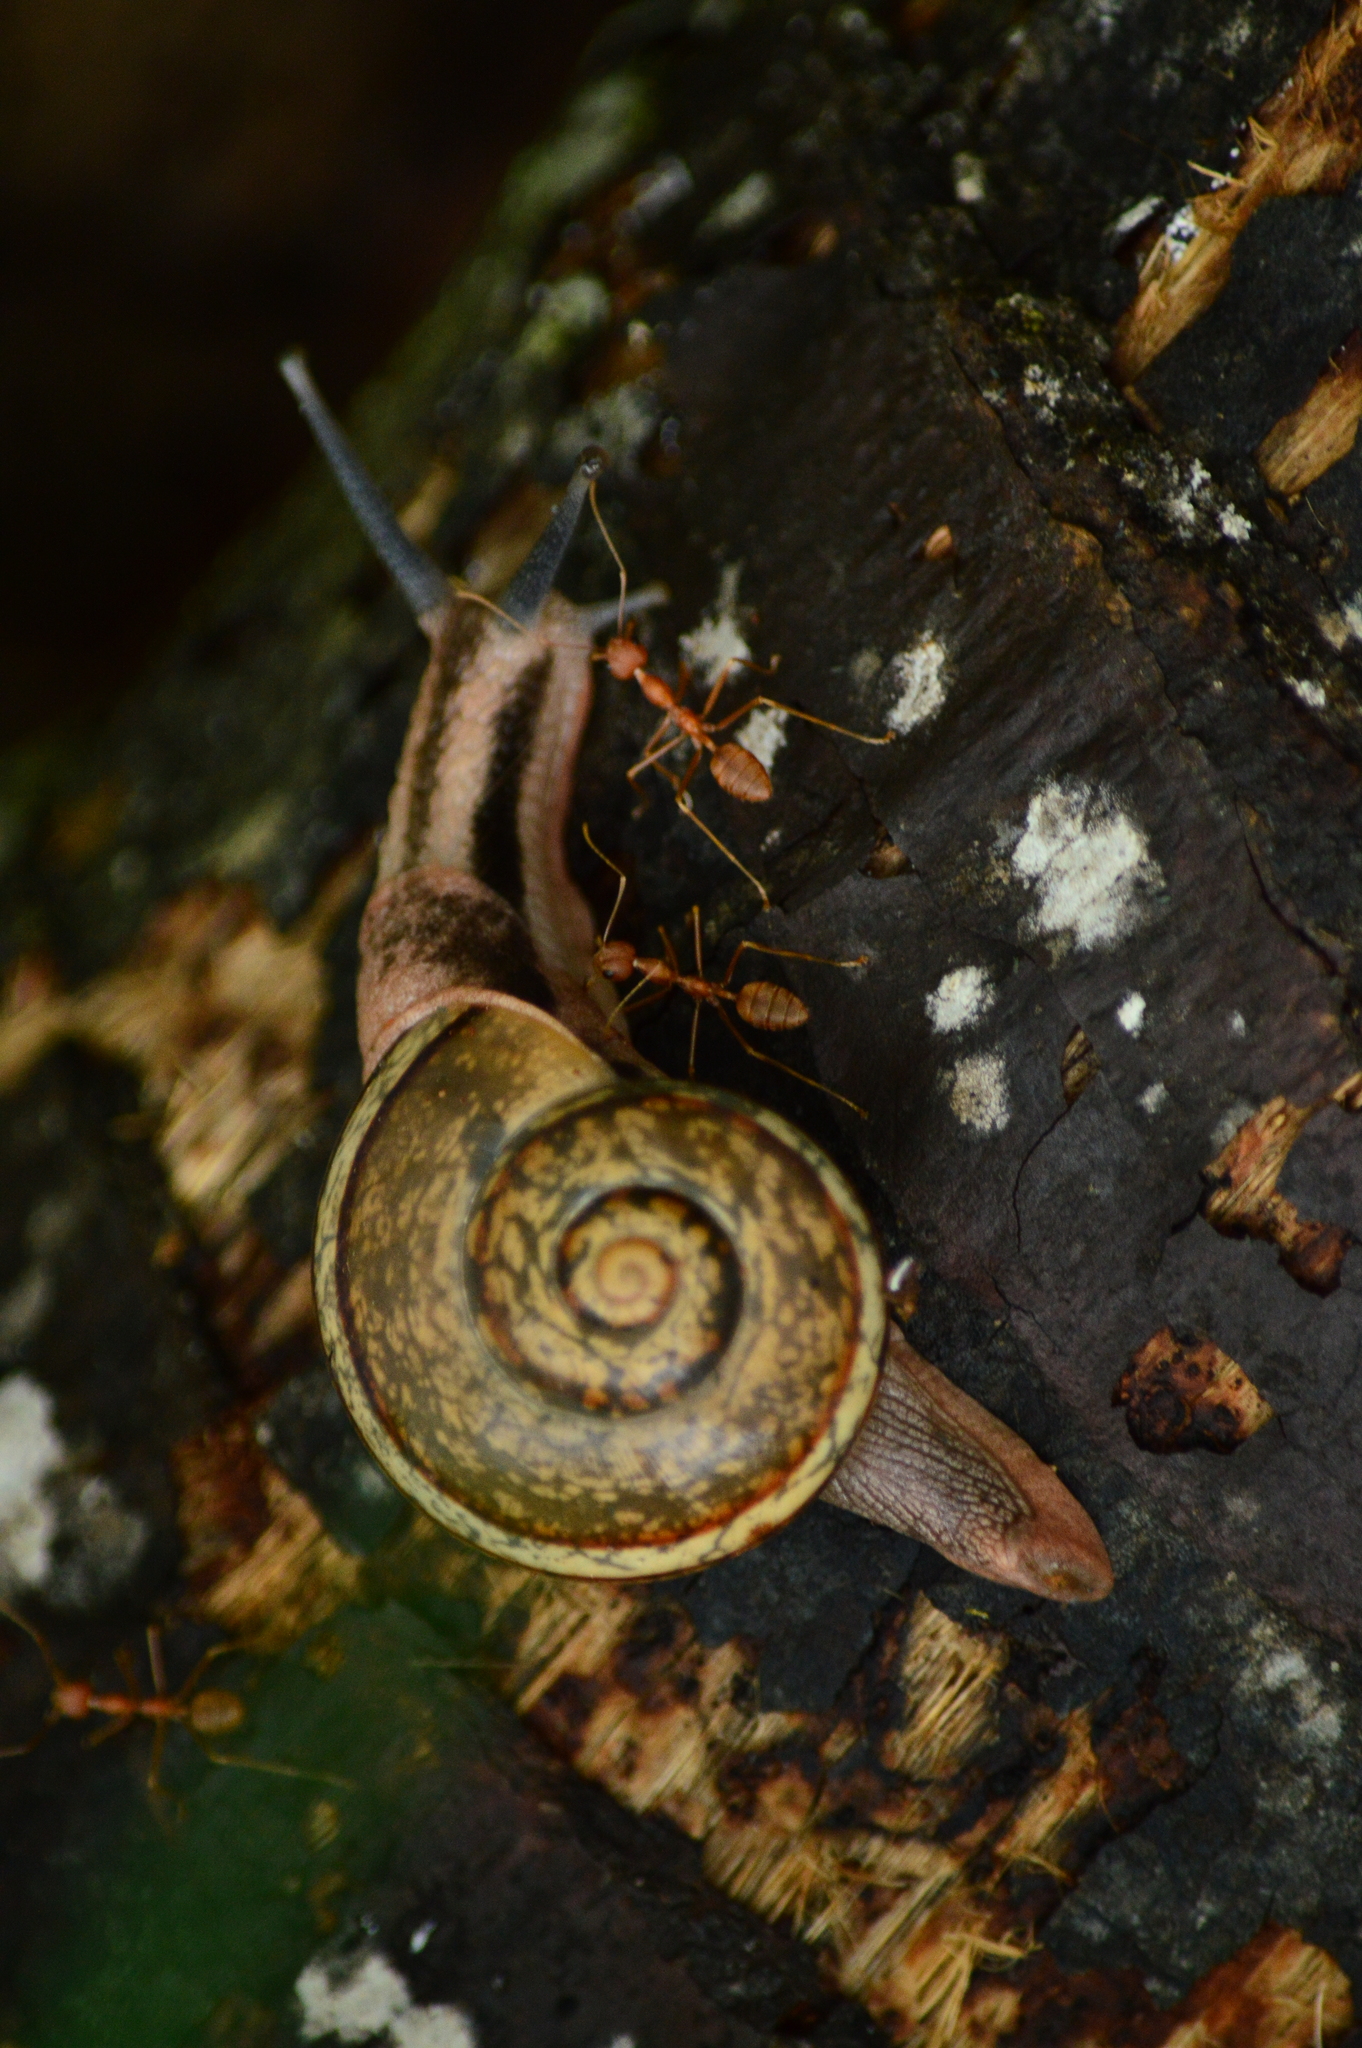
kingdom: Animalia
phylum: Mollusca
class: Gastropoda
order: Stylommatophora
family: Ariophantidae
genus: Ariophanta
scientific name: Ariophanta exilis
